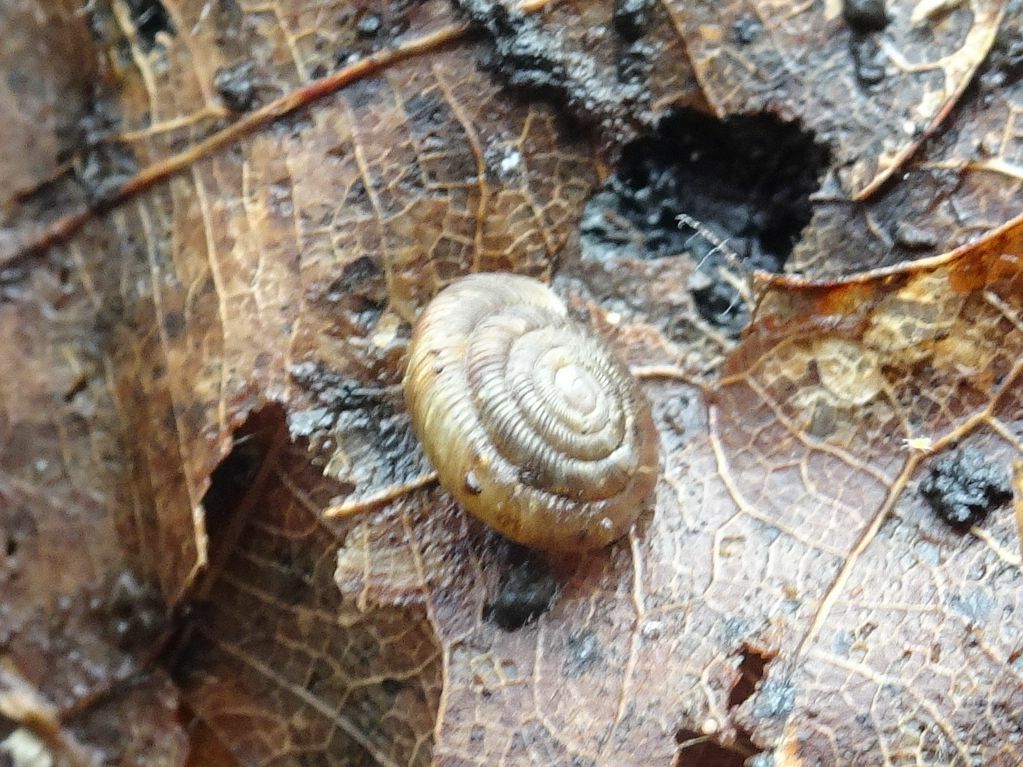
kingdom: Animalia
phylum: Mollusca
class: Gastropoda
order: Stylommatophora
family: Discidae
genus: Discus
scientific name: Discus rotundatus
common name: Rounded snail
